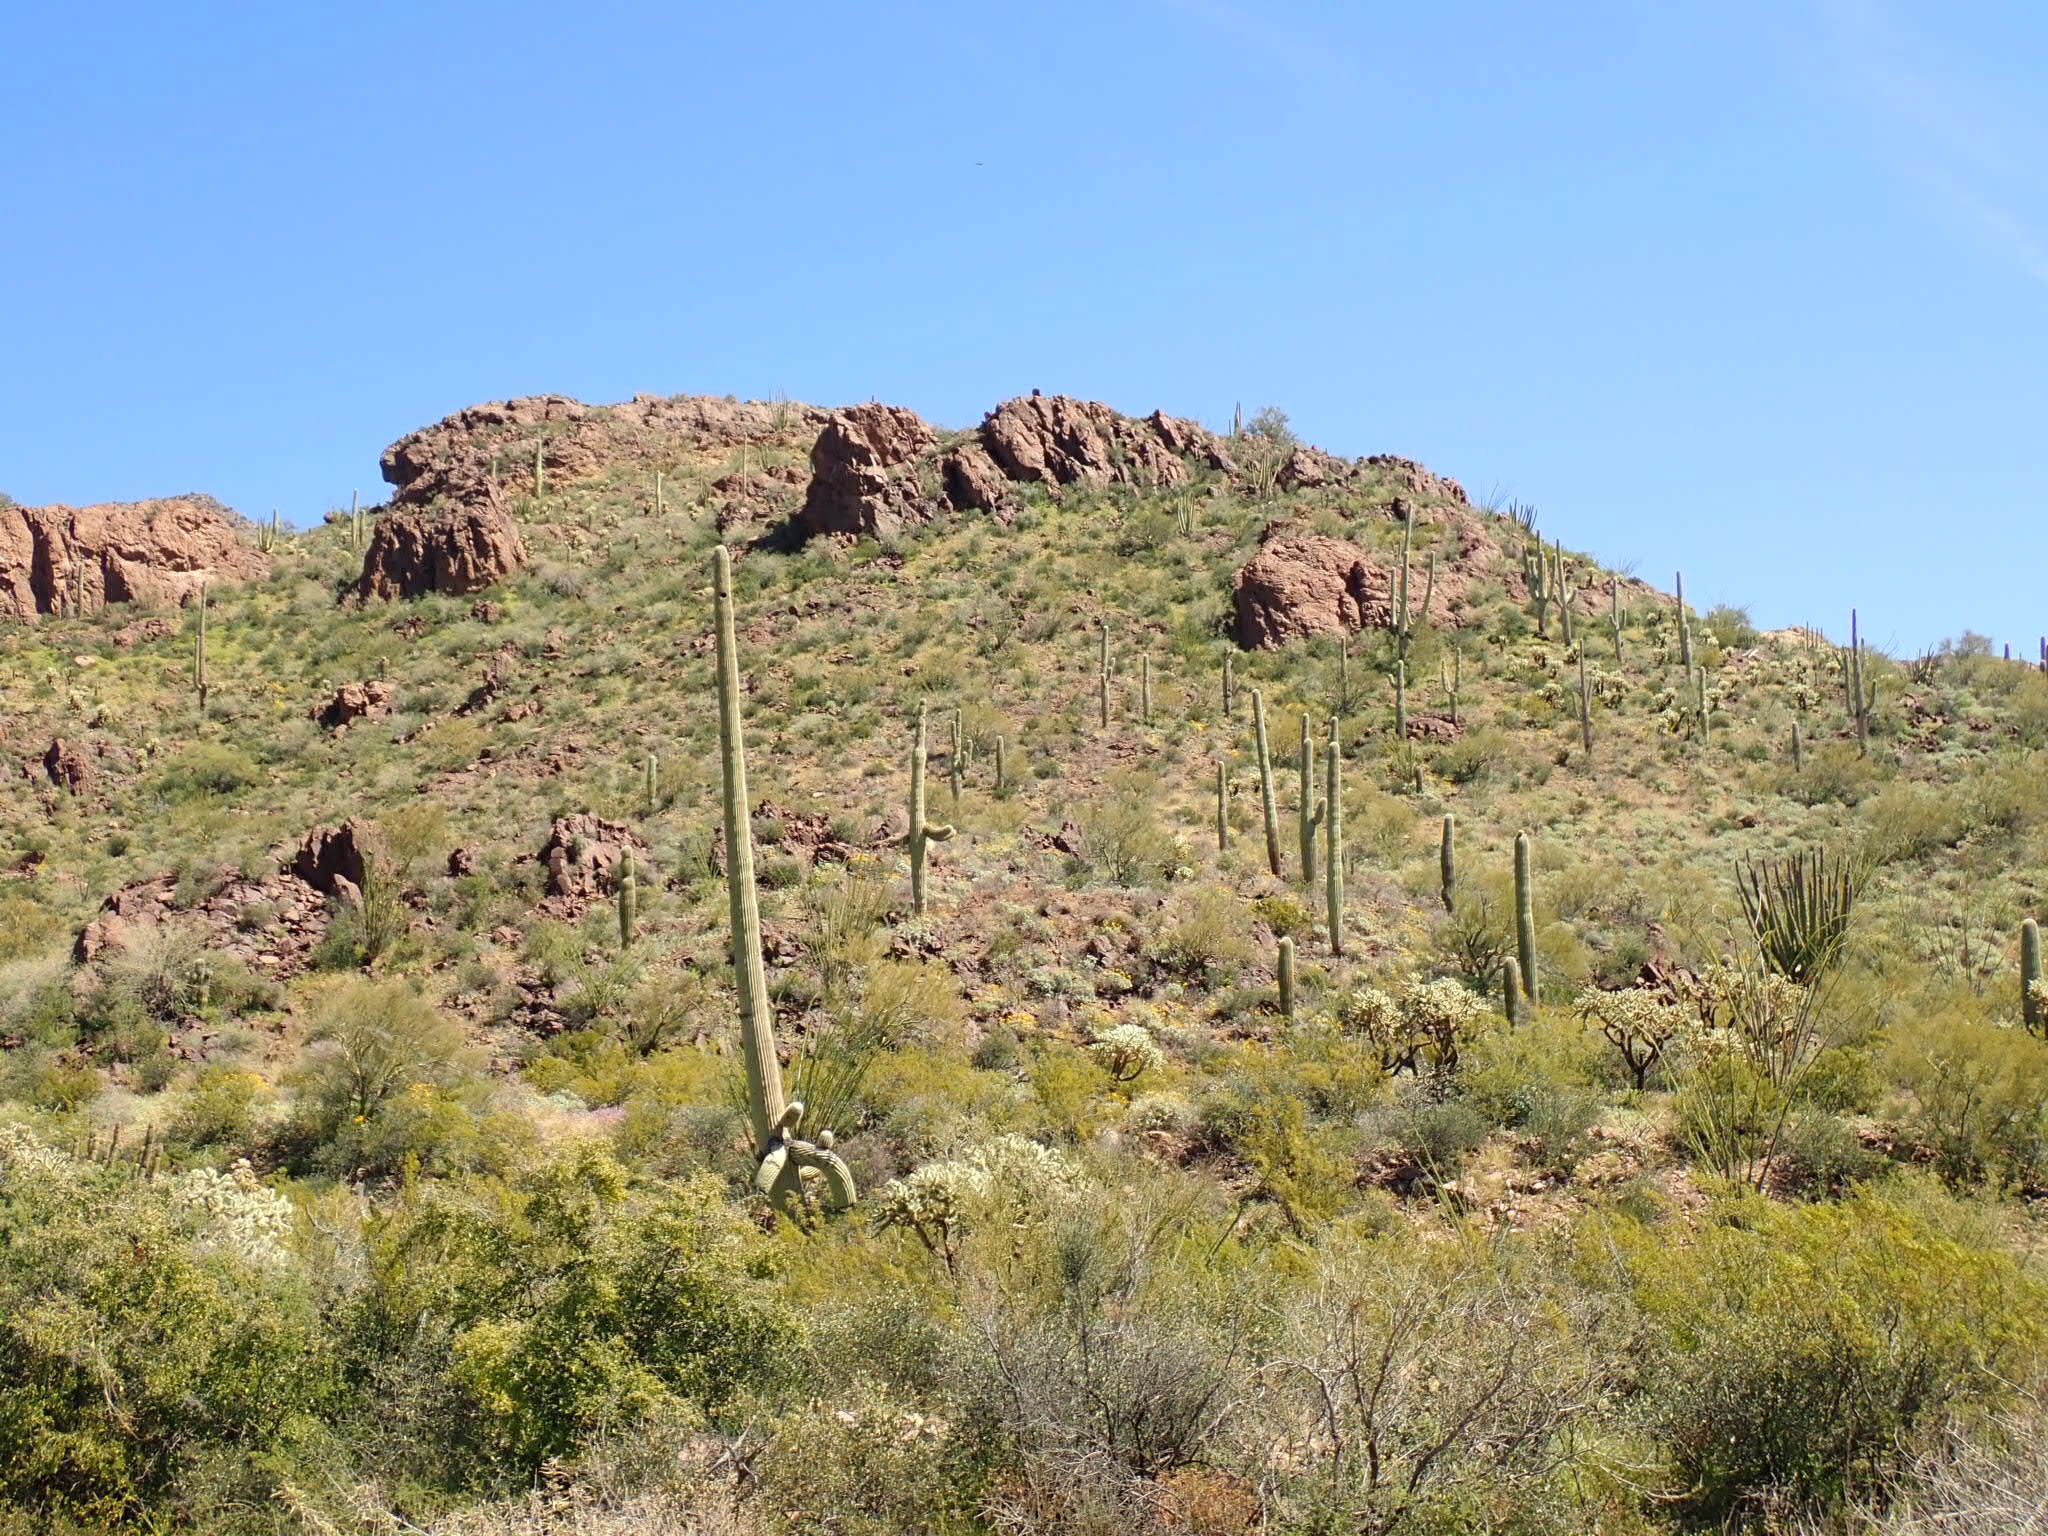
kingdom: Plantae
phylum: Tracheophyta
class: Magnoliopsida
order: Caryophyllales
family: Cactaceae
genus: Carnegiea
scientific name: Carnegiea gigantea
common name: Saguaro
